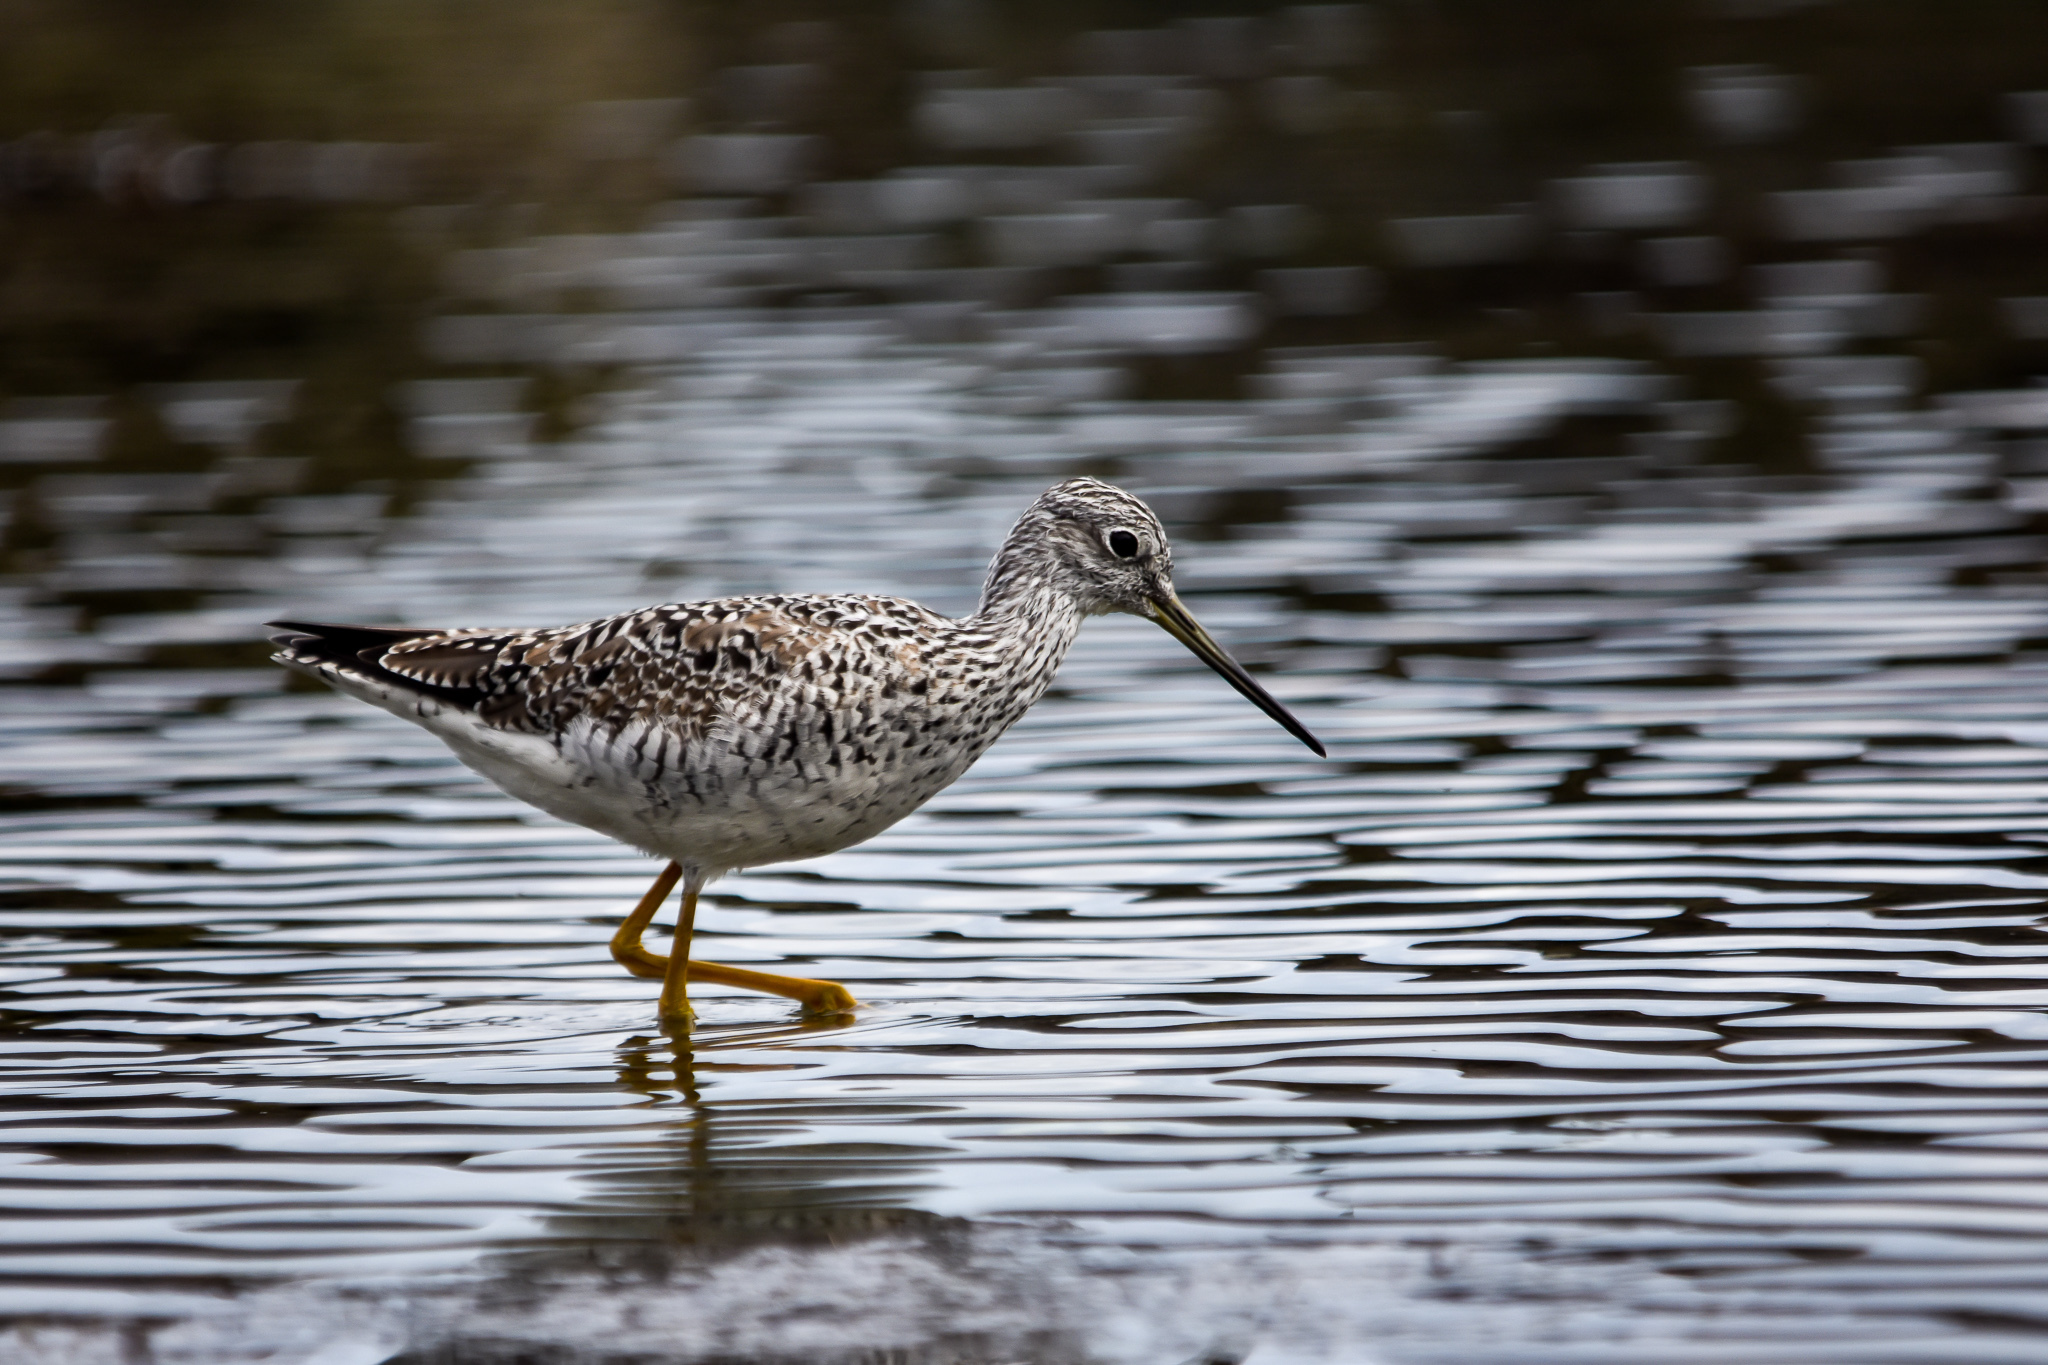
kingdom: Animalia
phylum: Chordata
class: Aves
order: Charadriiformes
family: Scolopacidae
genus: Tringa
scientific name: Tringa melanoleuca
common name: Greater yellowlegs
